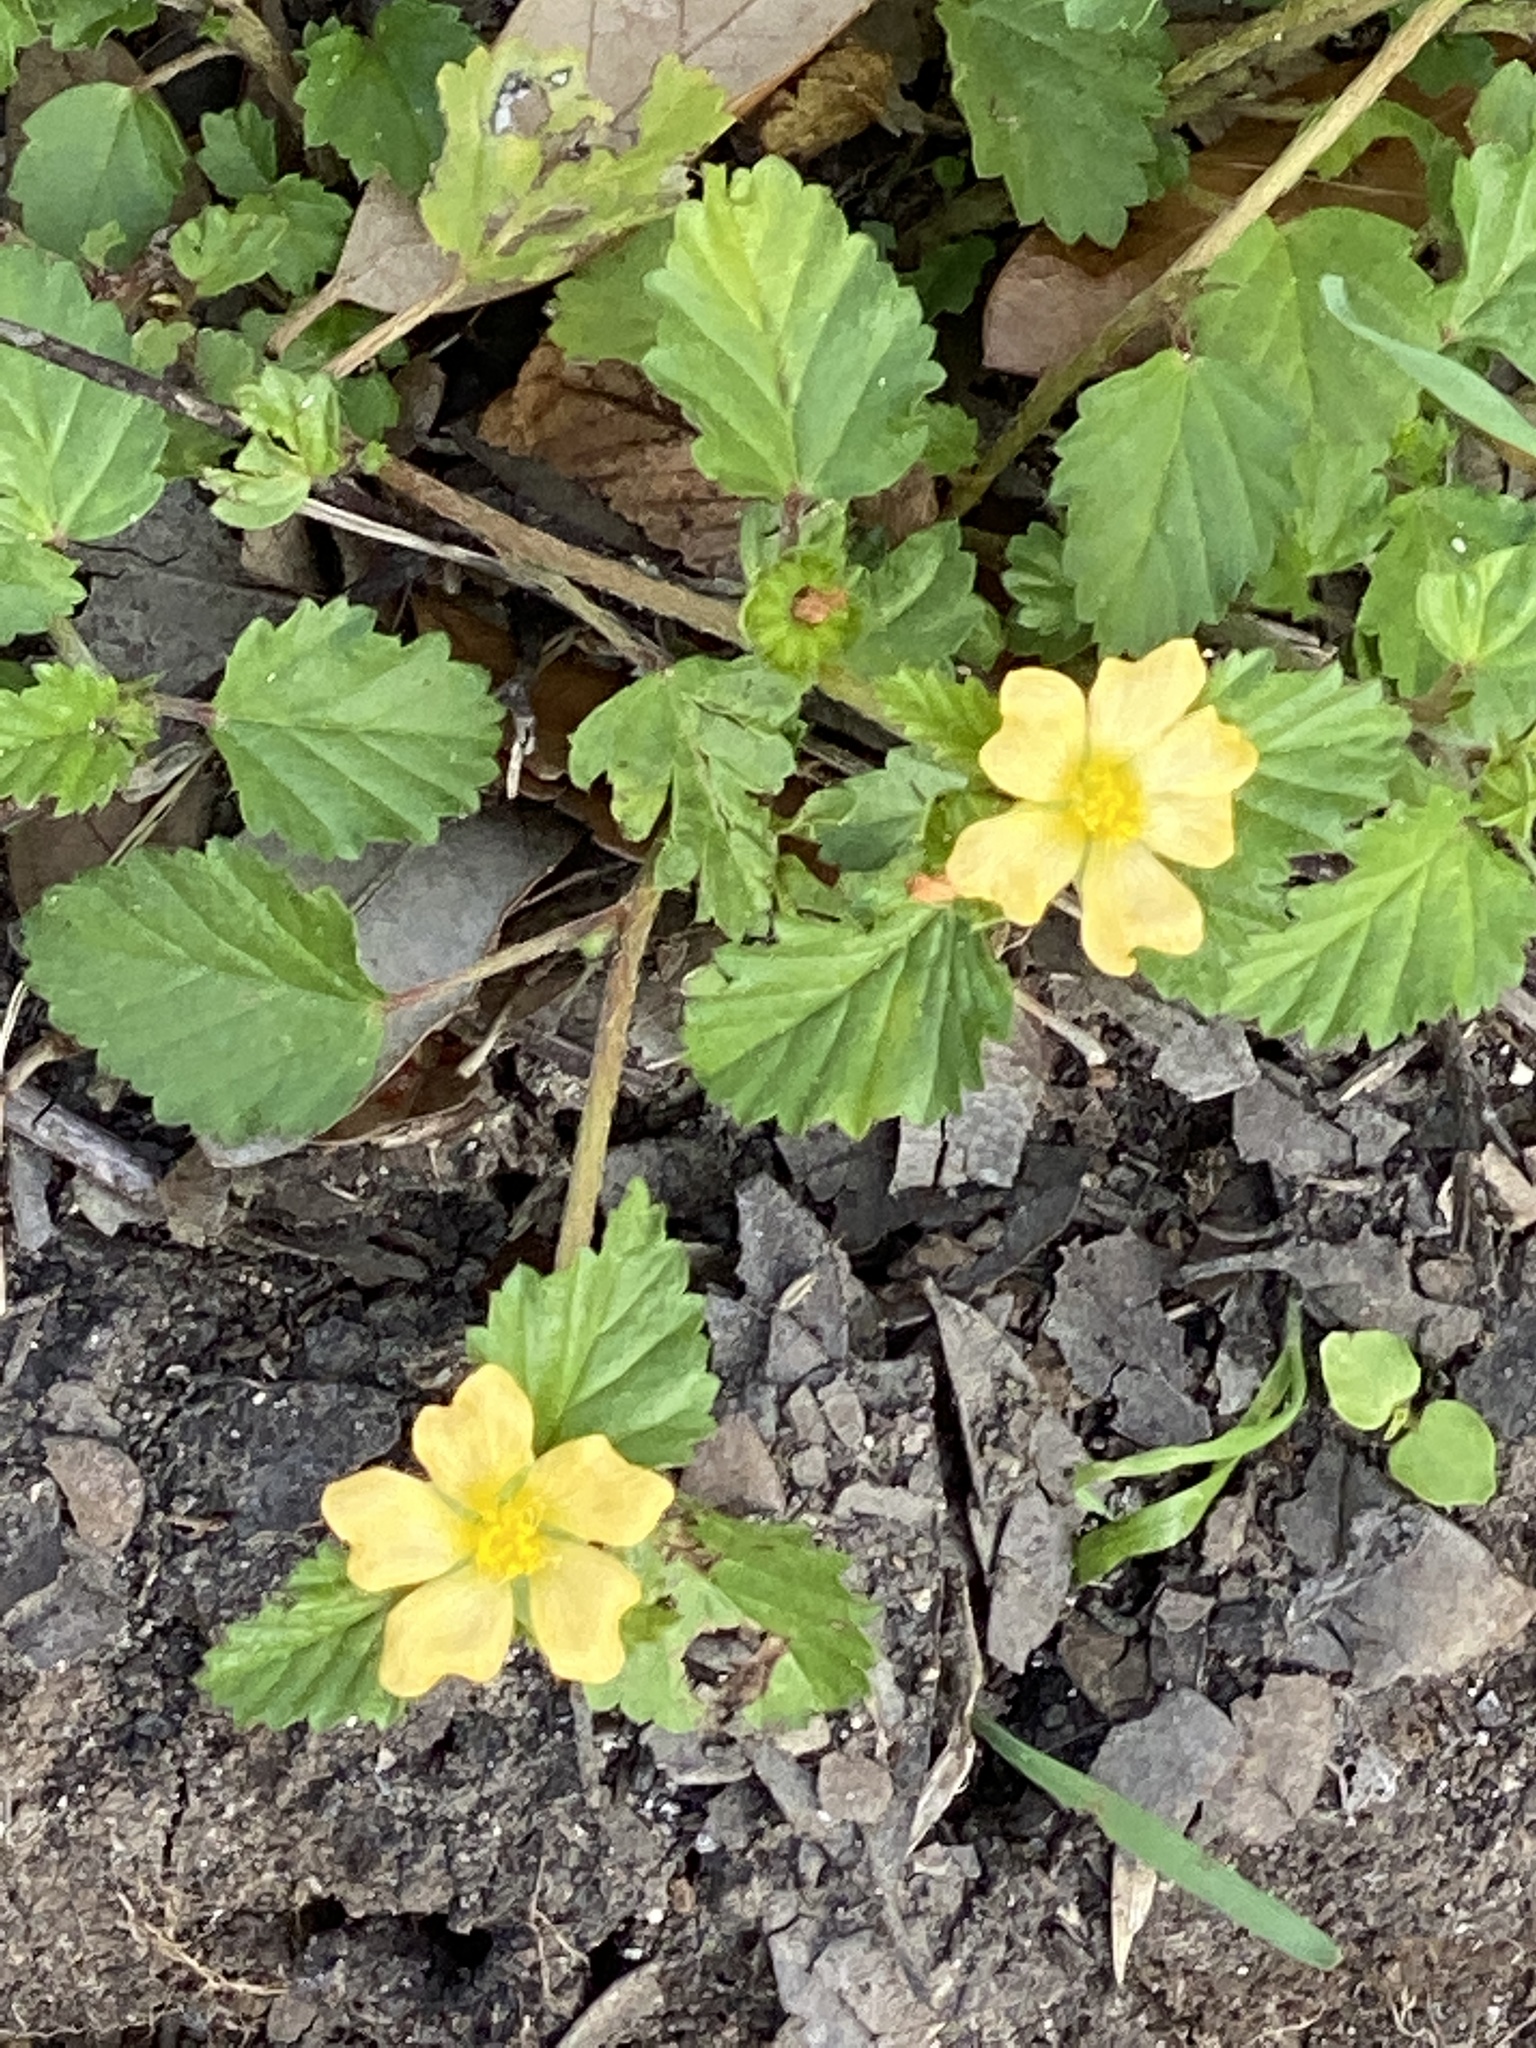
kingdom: Plantae
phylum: Tracheophyta
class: Magnoliopsida
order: Malvales
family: Malvaceae
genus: Malvastrum
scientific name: Malvastrum coromandelianum
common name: Threelobe false mallow
